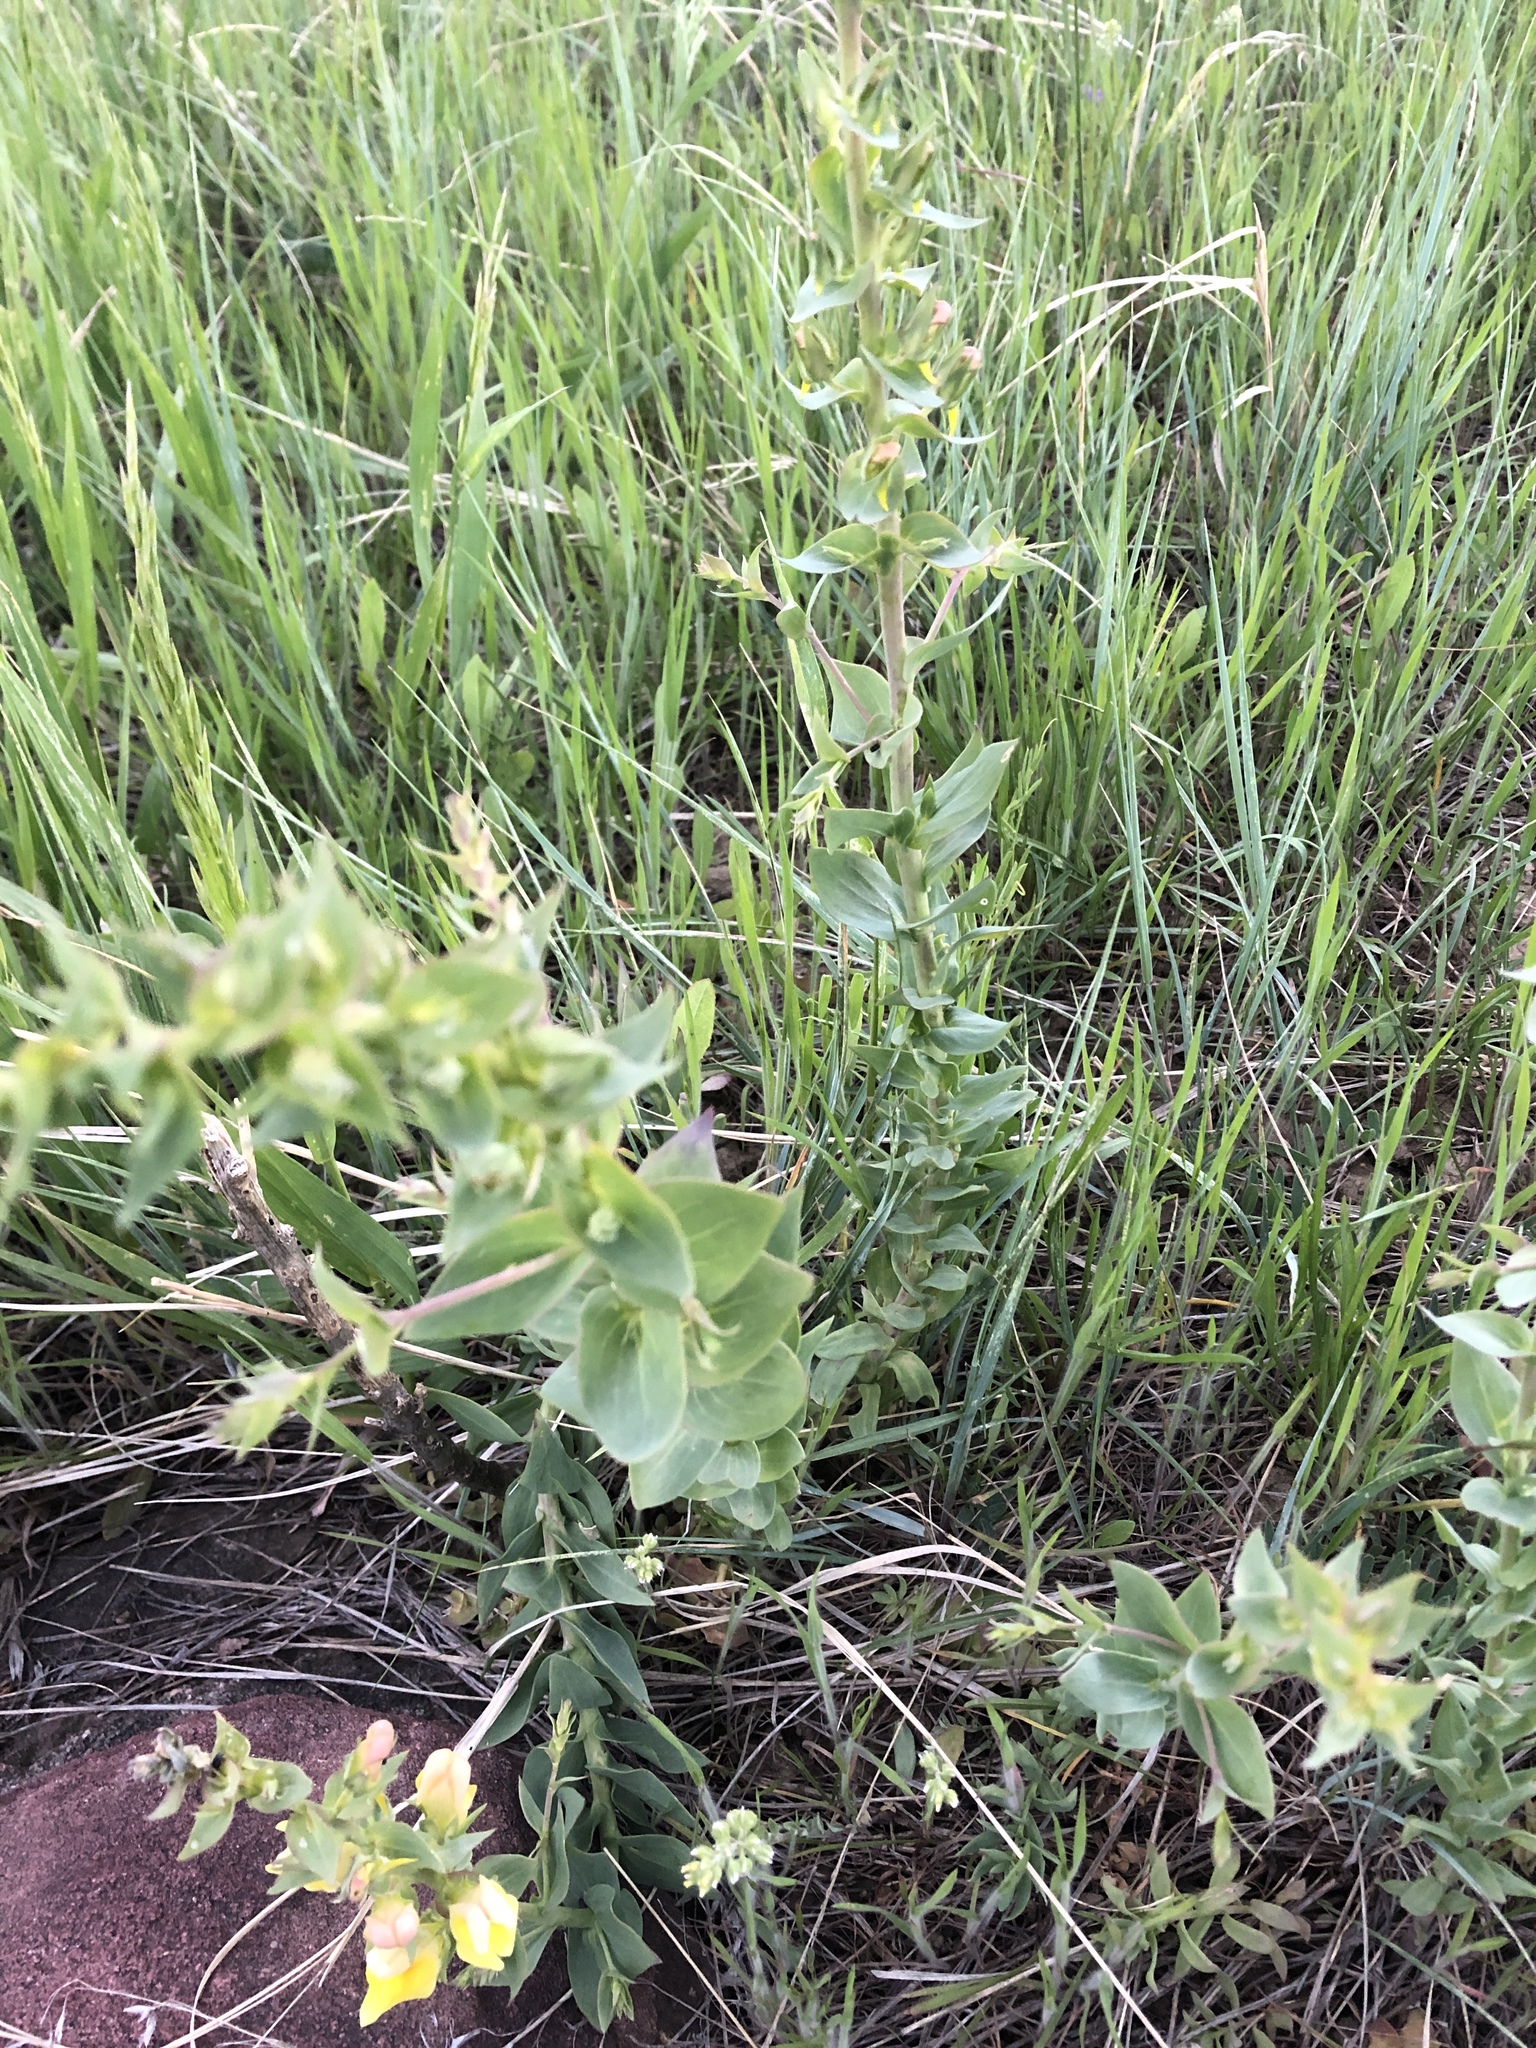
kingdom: Plantae
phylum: Tracheophyta
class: Magnoliopsida
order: Lamiales
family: Plantaginaceae
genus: Linaria
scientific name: Linaria dalmatica
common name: Dalmatian toadflax
